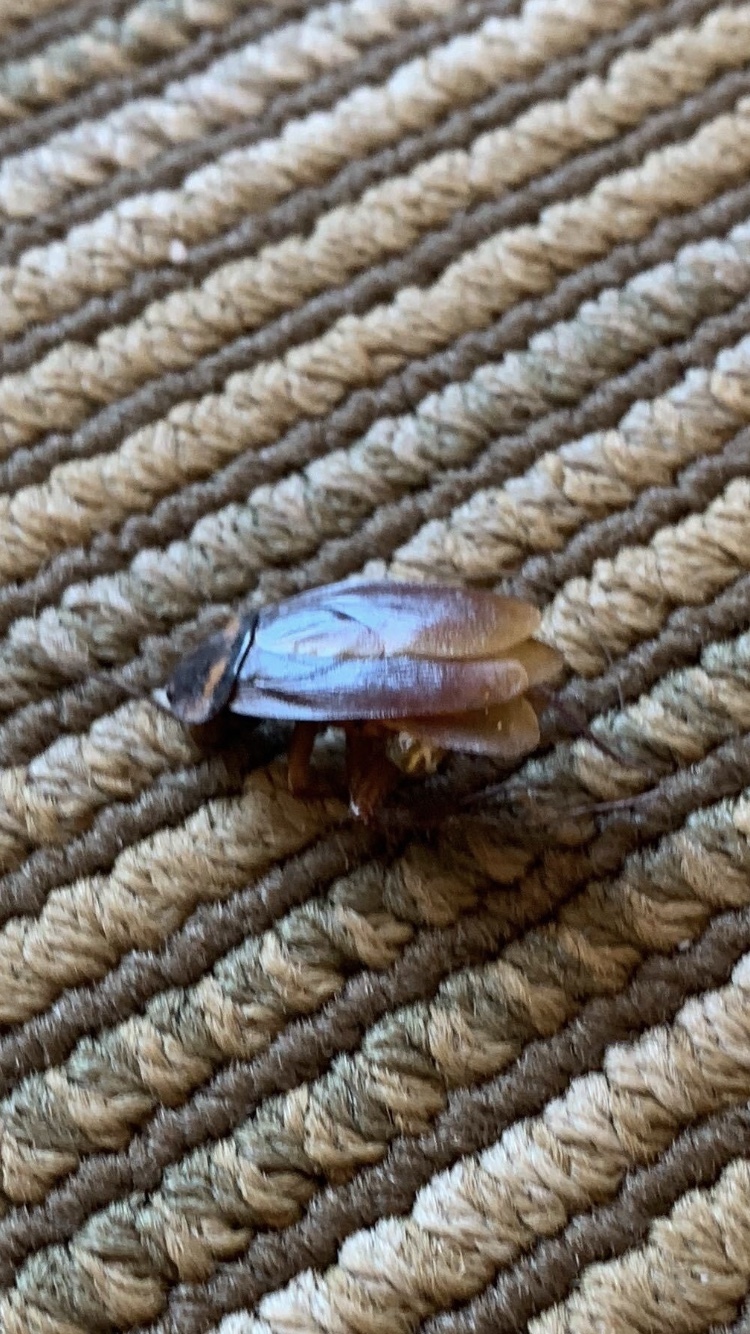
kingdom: Animalia
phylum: Arthropoda
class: Insecta
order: Blattodea
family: Blattidae
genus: Periplaneta
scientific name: Periplaneta americana
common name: American cockroach
